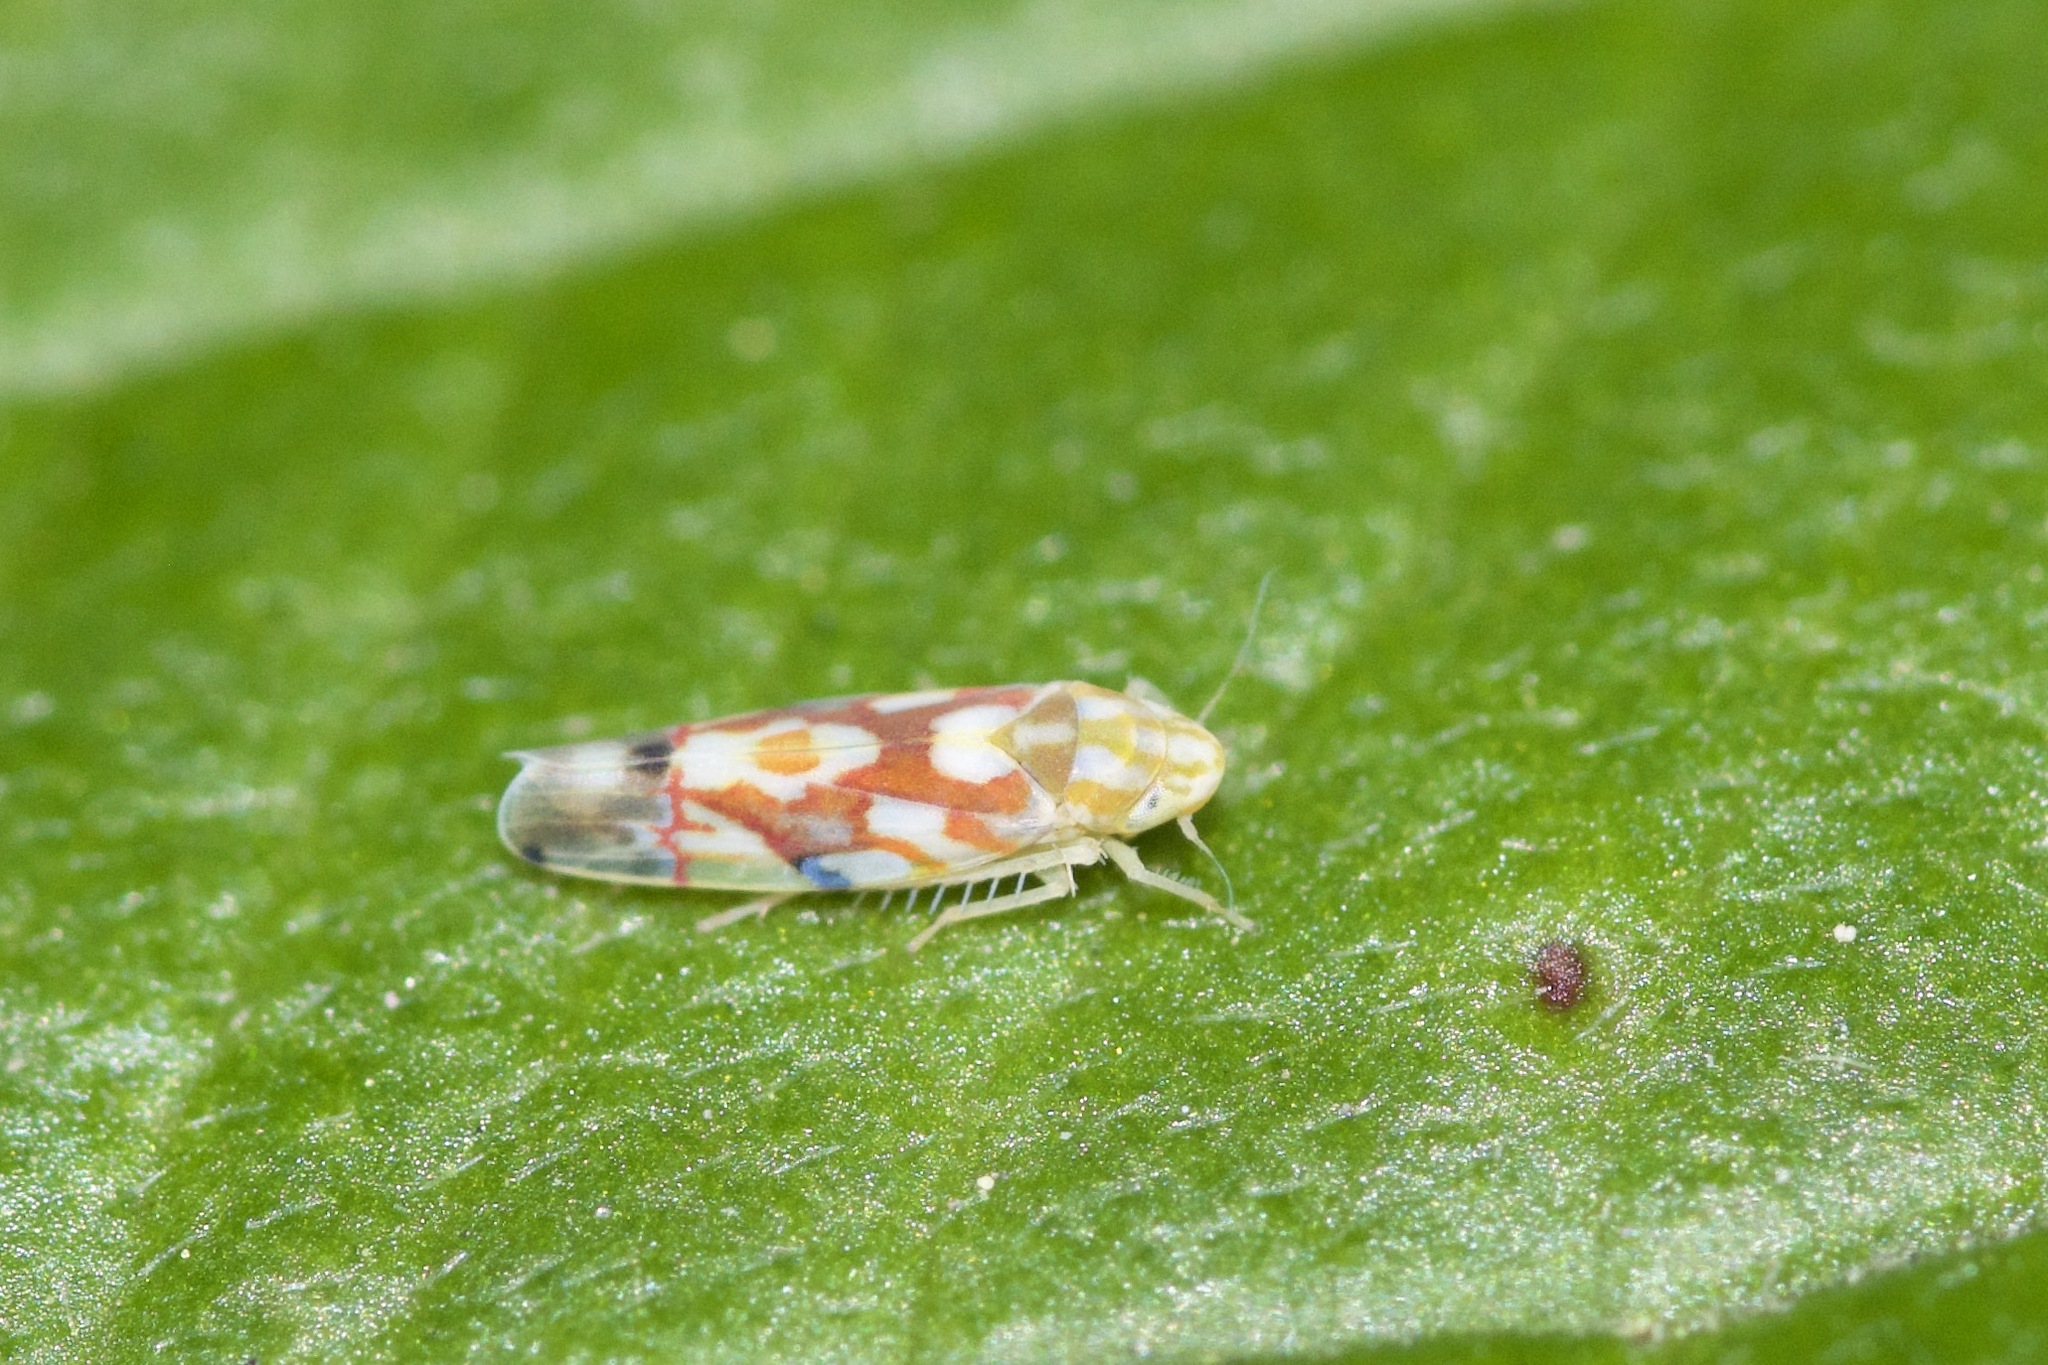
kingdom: Animalia
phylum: Arthropoda
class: Insecta
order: Hemiptera
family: Cicadellidae
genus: Erythroneura
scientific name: Erythroneura vitifex
